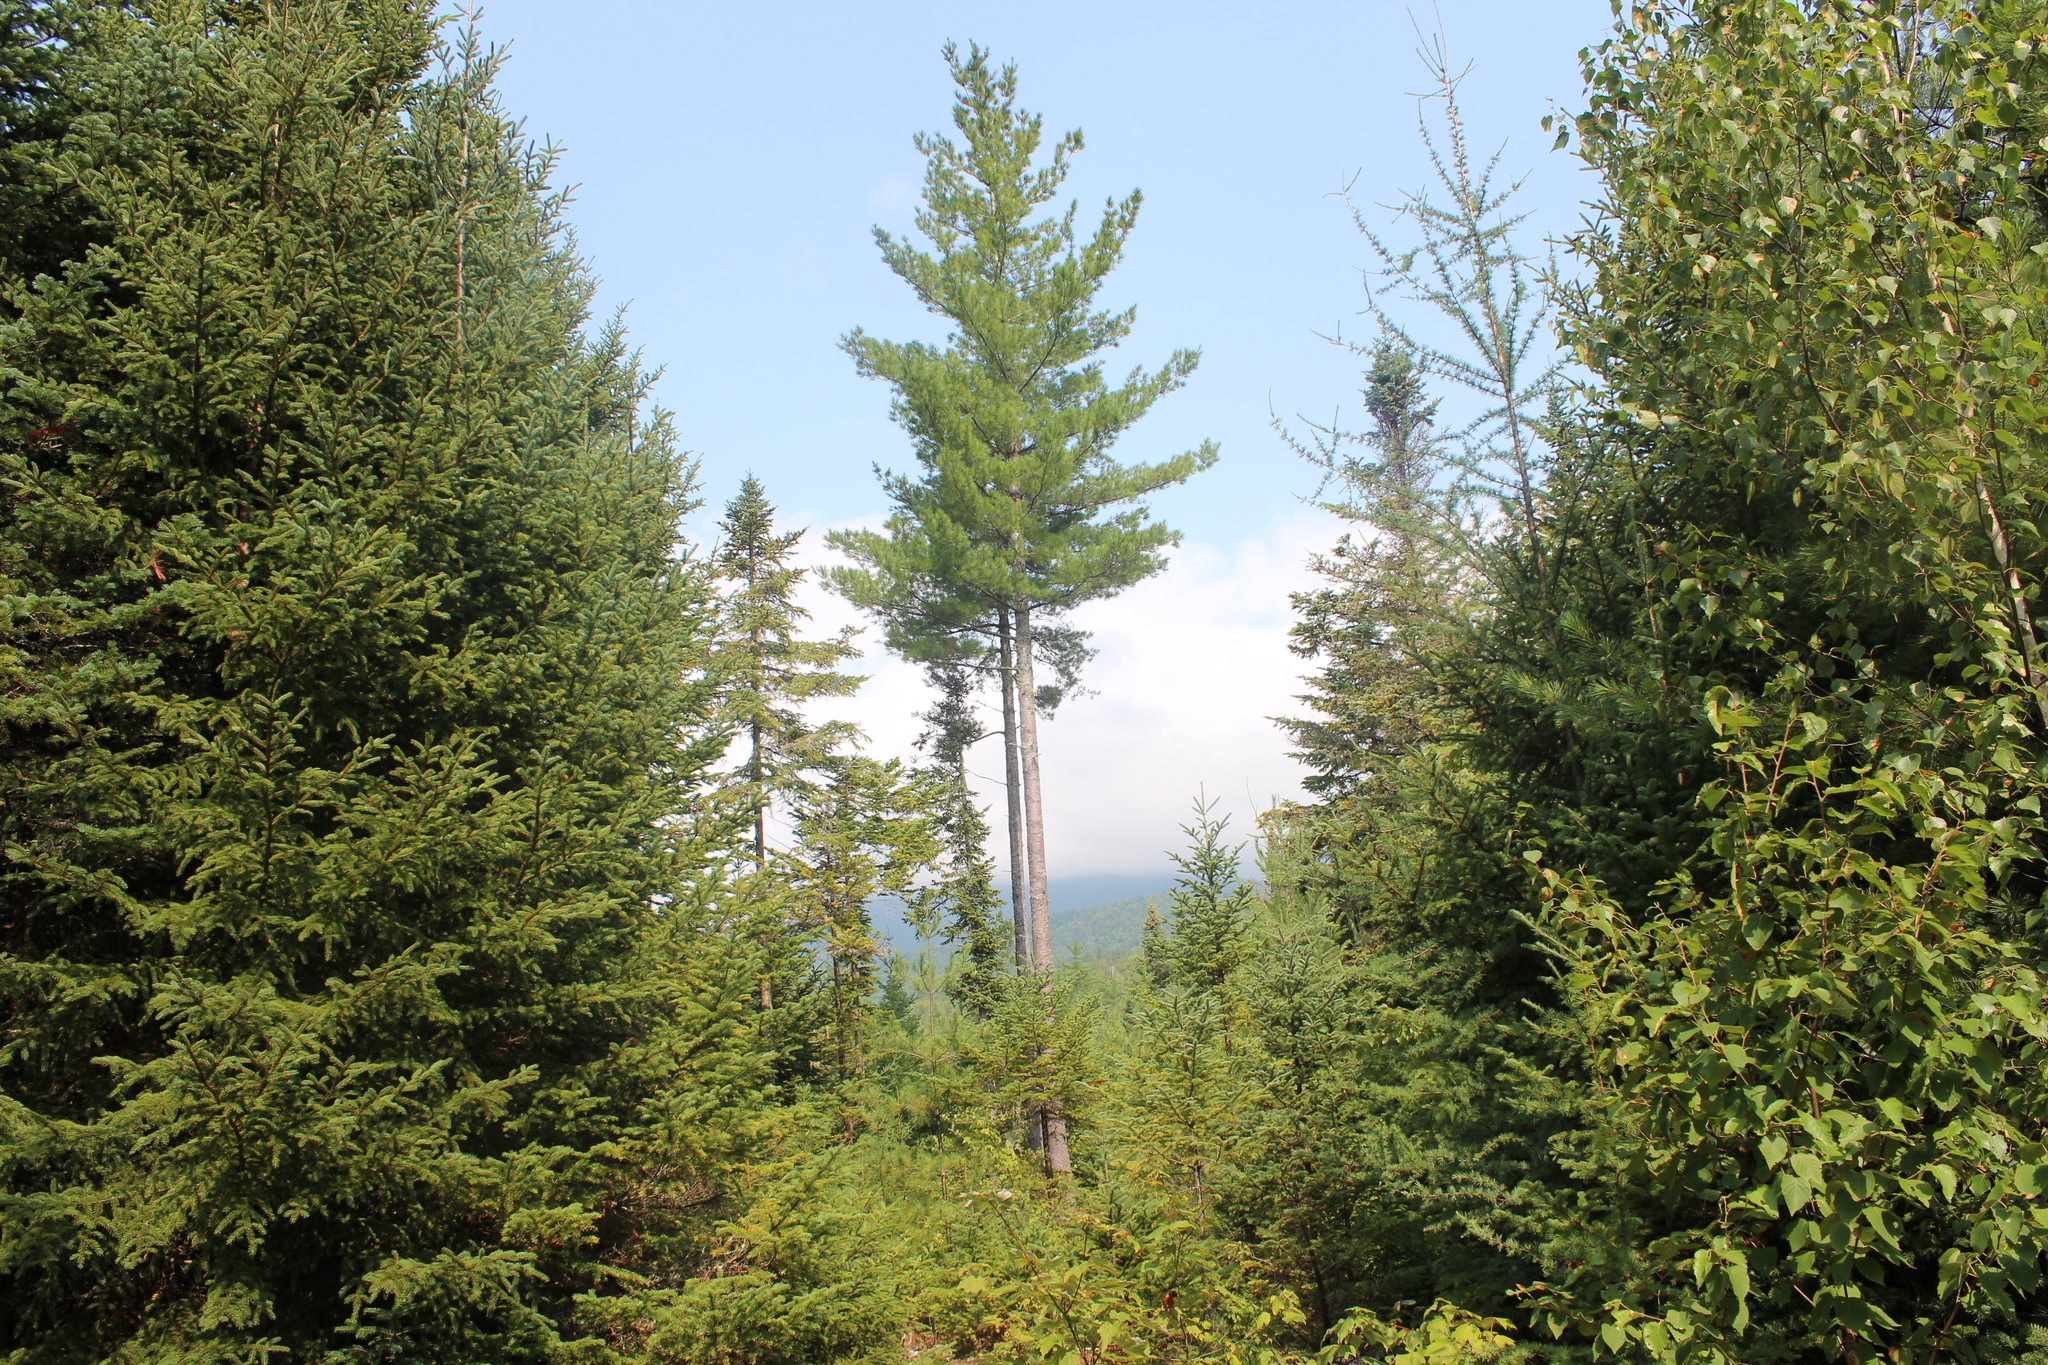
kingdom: Plantae
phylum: Tracheophyta
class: Pinopsida
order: Pinales
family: Pinaceae
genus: Pinus
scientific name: Pinus strobus
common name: Weymouth pine
